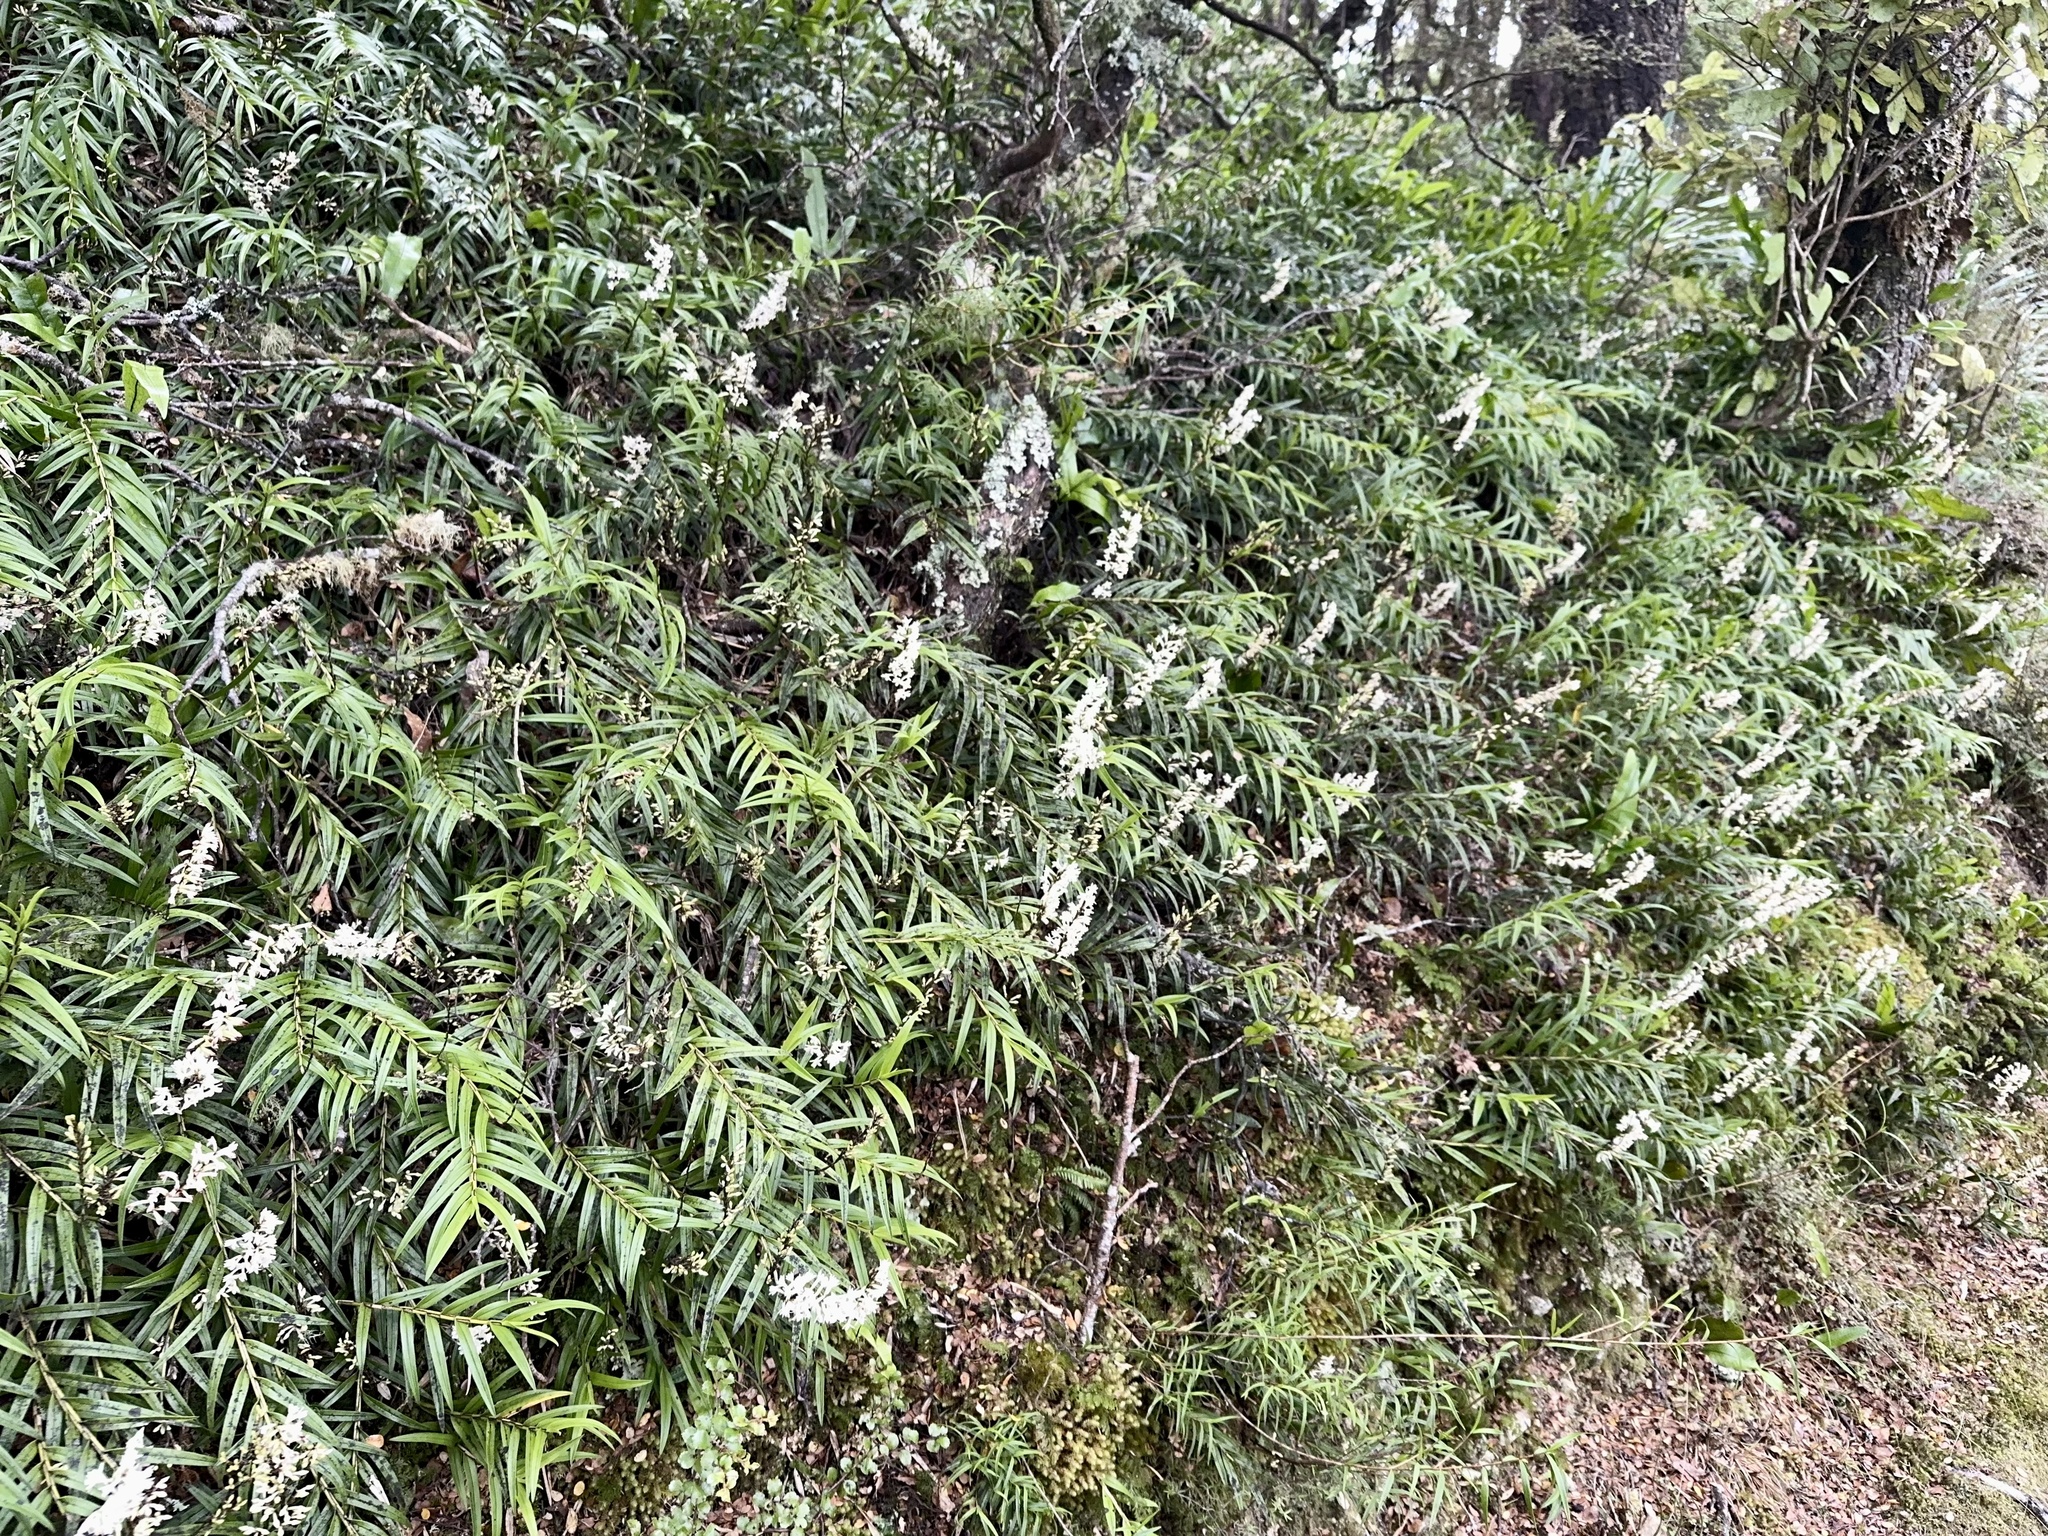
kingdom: Plantae
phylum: Tracheophyta
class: Liliopsida
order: Asparagales
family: Orchidaceae
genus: Earina
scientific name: Earina autumnalis
